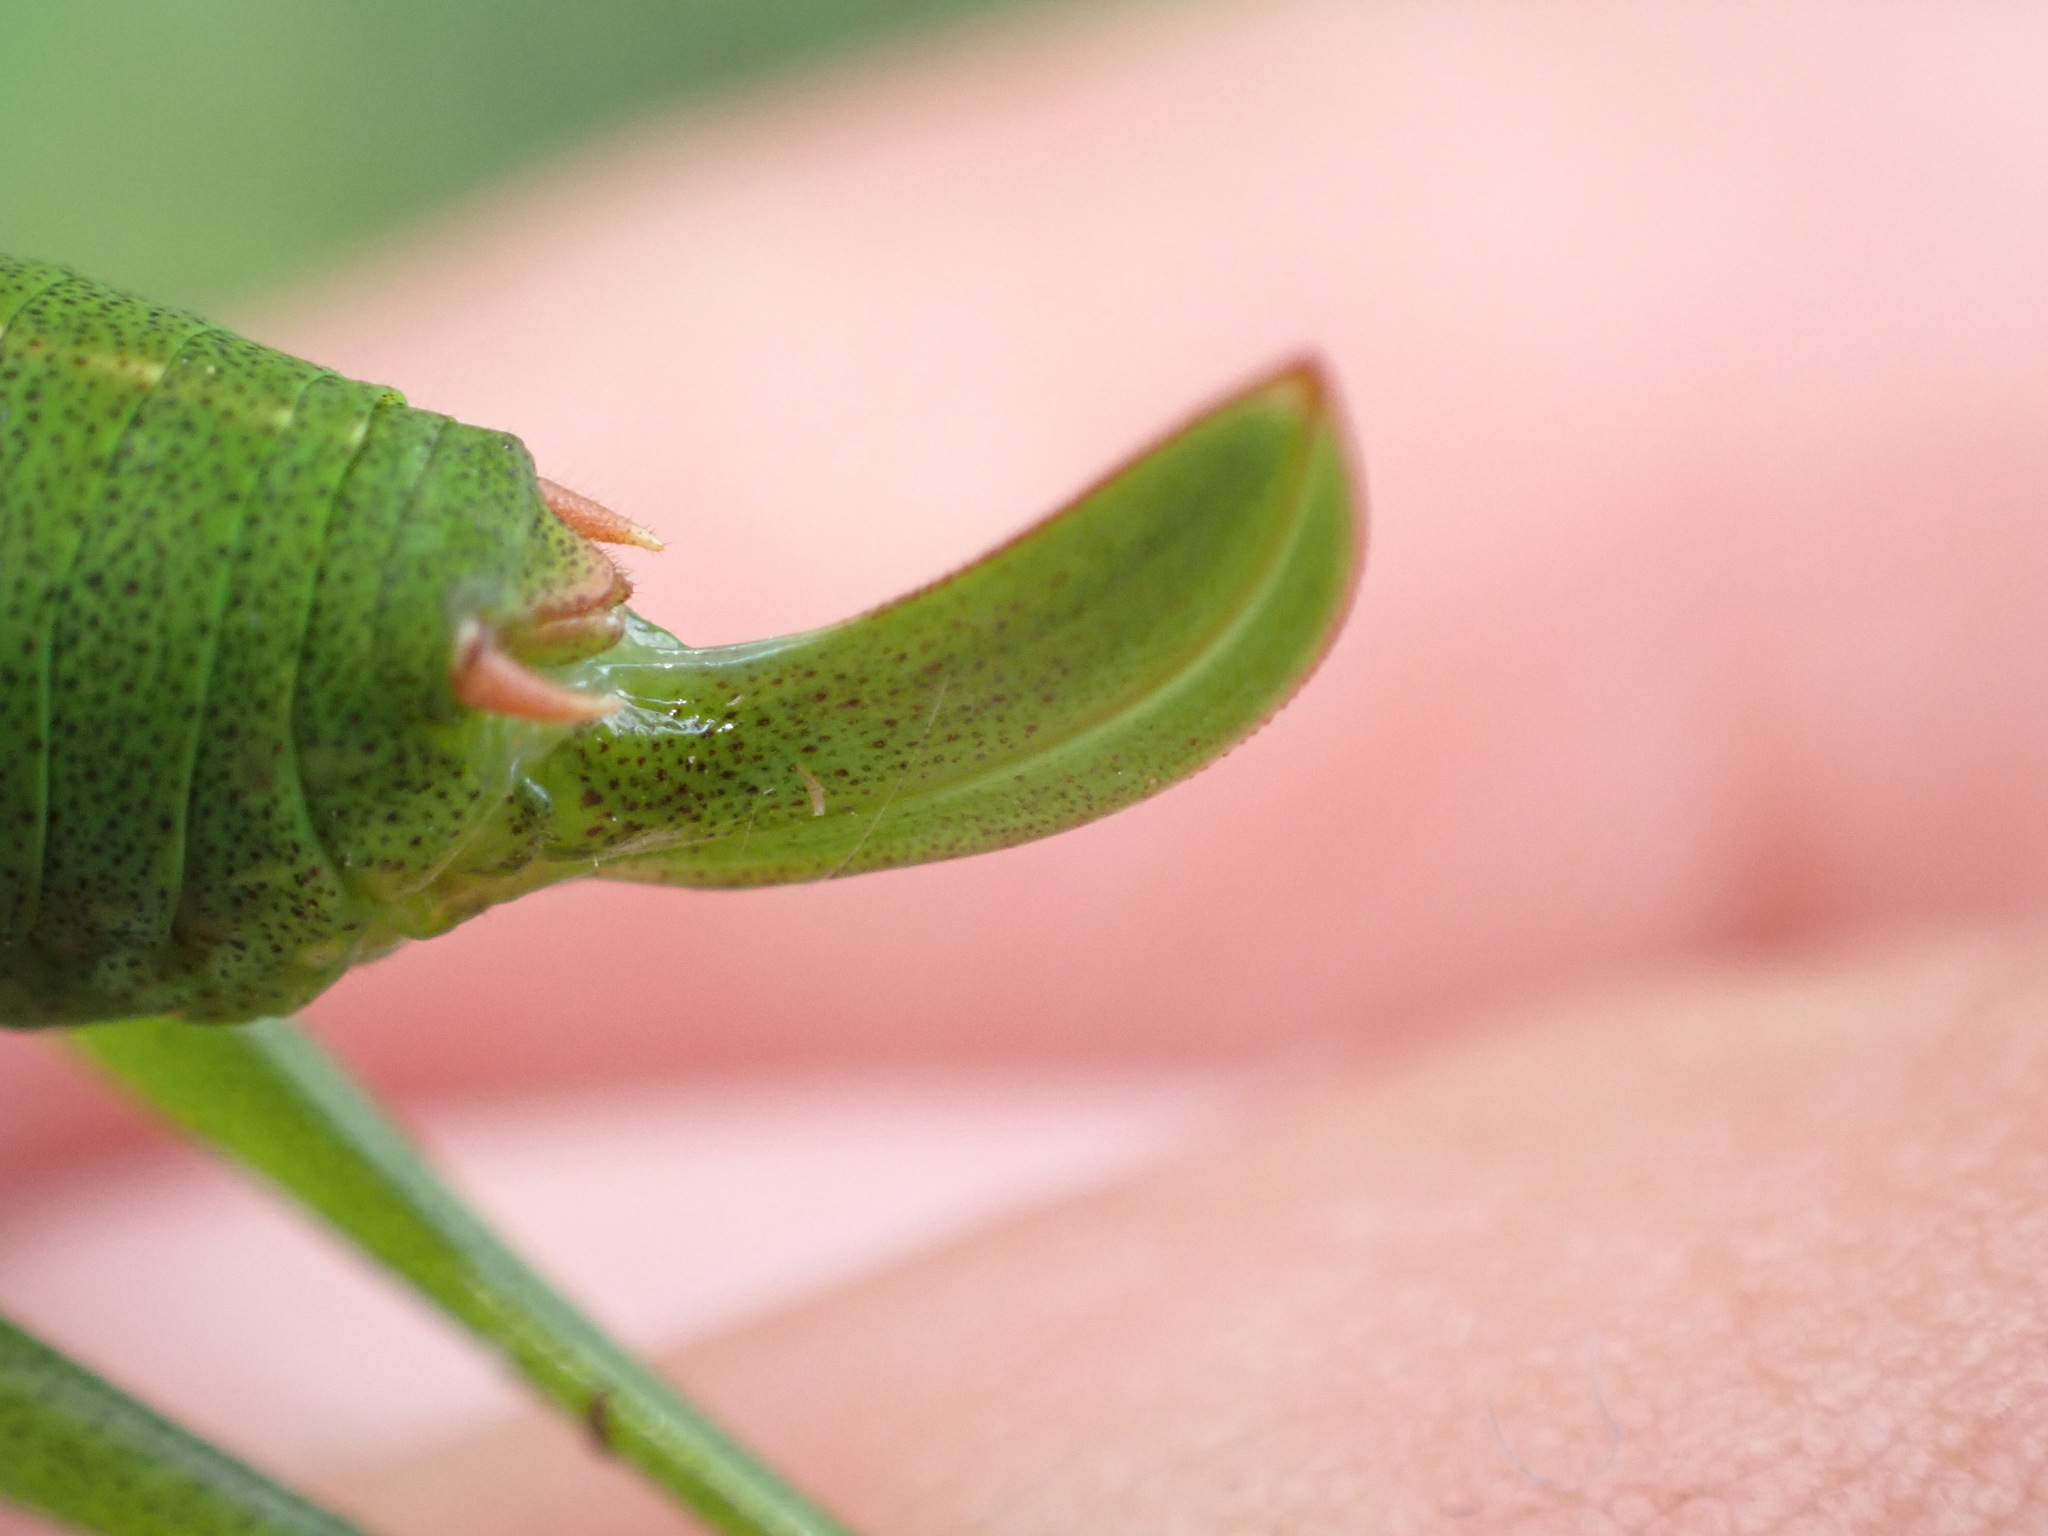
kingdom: Animalia
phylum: Arthropoda
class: Insecta
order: Orthoptera
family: Tettigoniidae
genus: Leptophyes
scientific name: Leptophyes punctatissima
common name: Speckled bush-cricket
